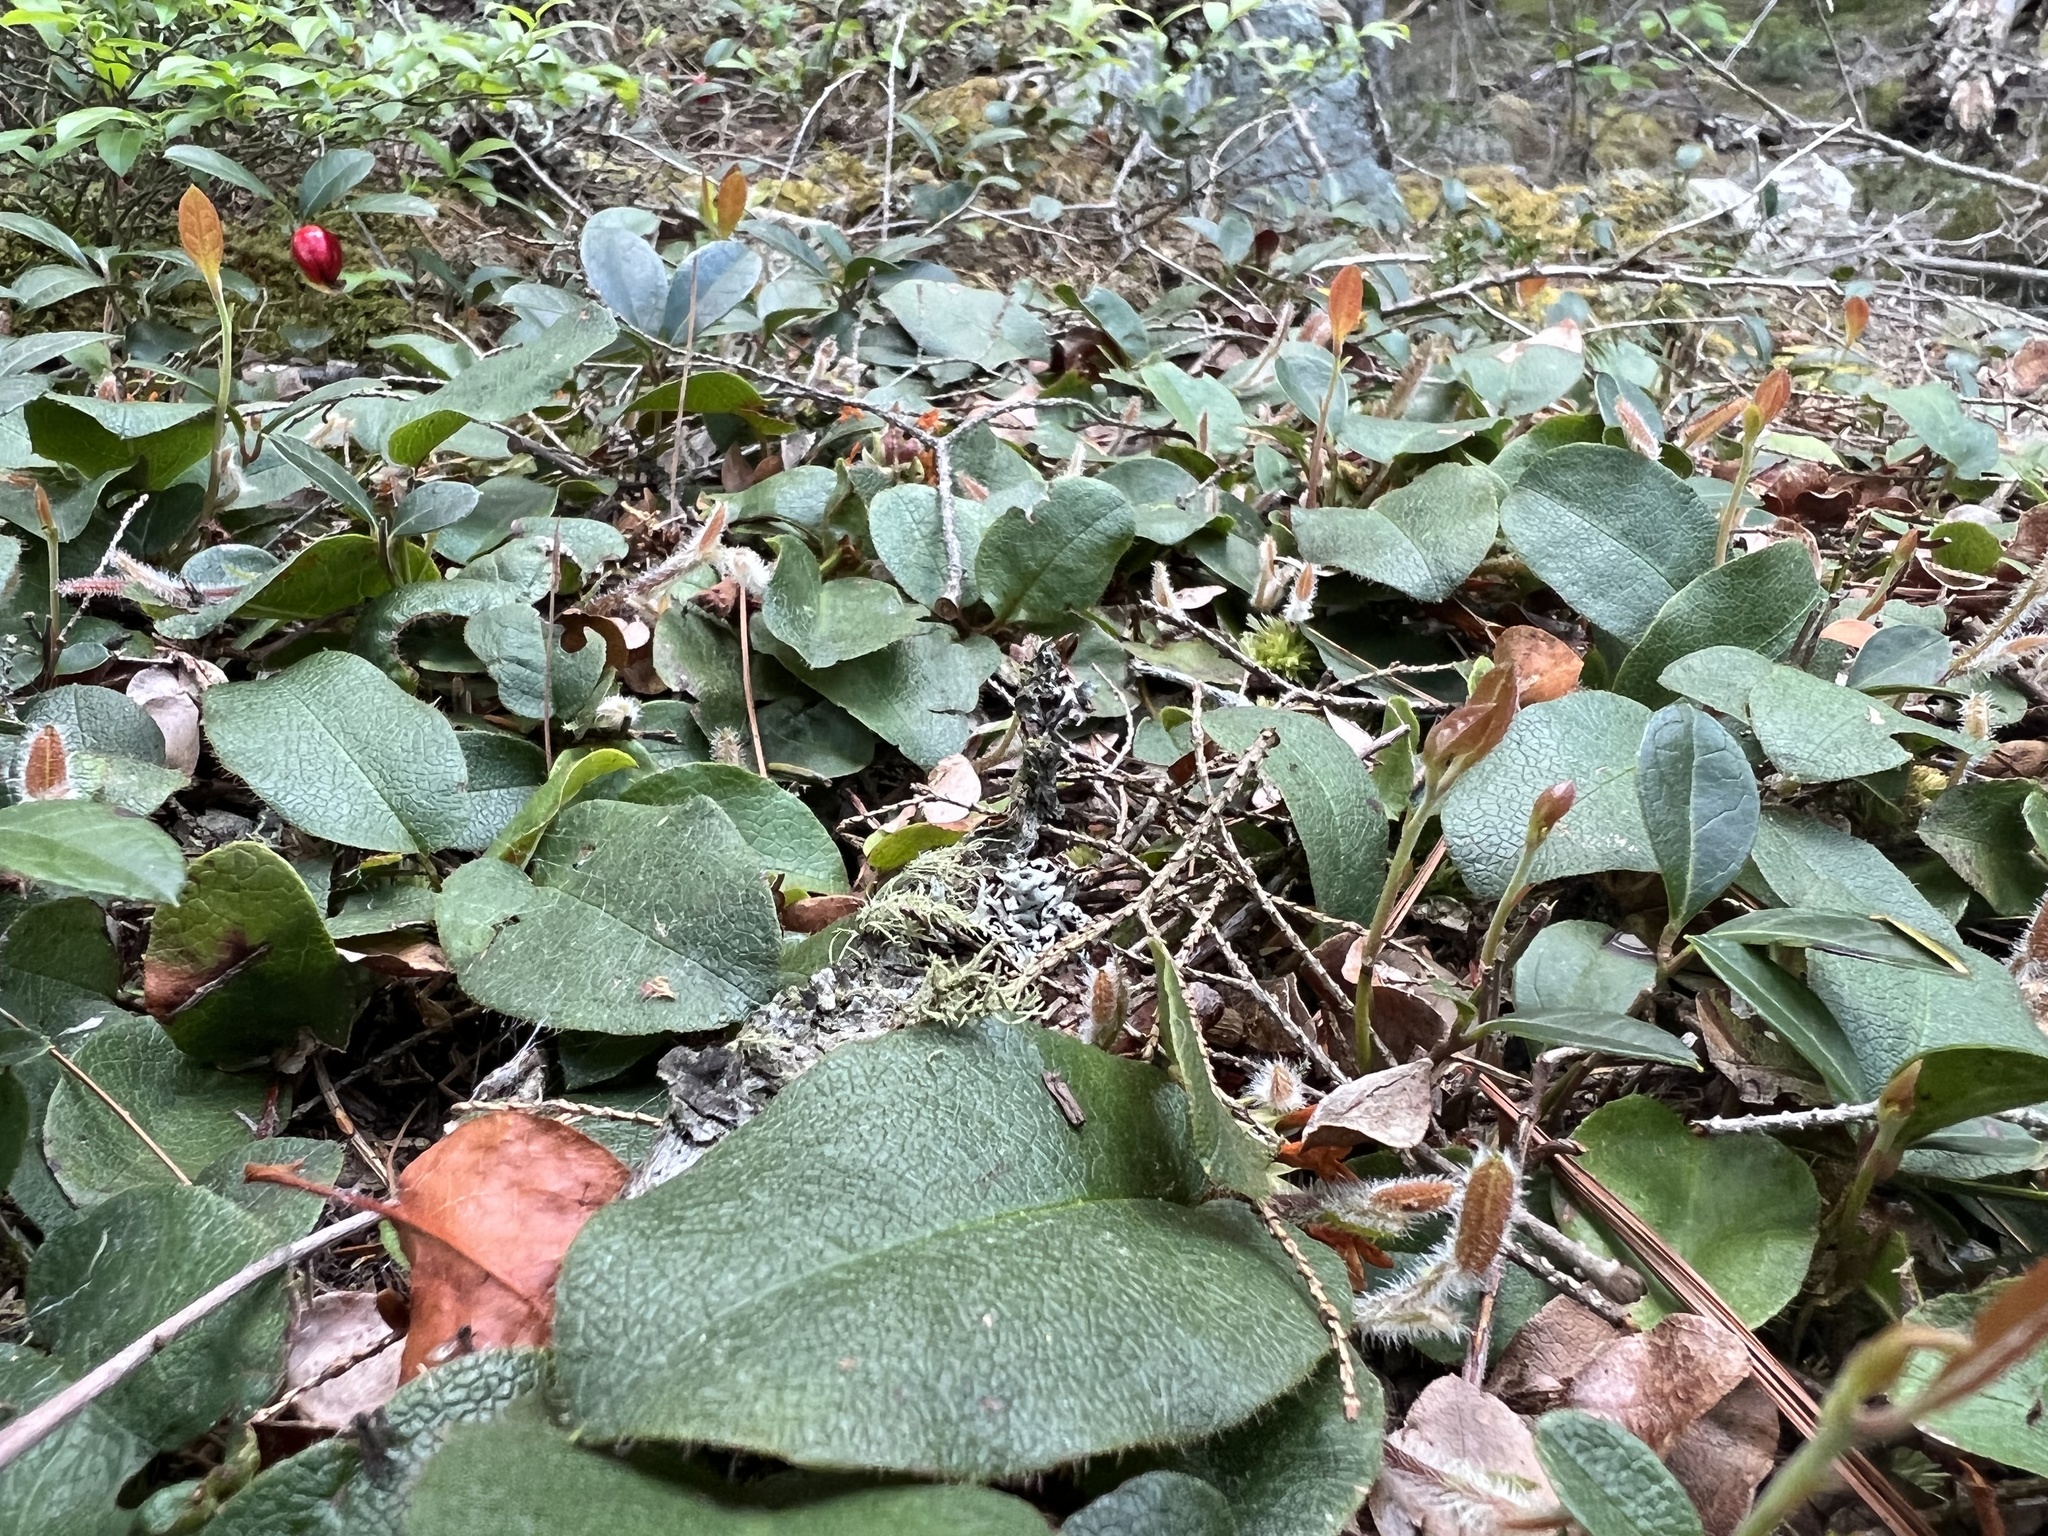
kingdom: Plantae
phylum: Tracheophyta
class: Magnoliopsida
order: Ericales
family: Ericaceae
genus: Epigaea
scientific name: Epigaea repens
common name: Gravelroot
